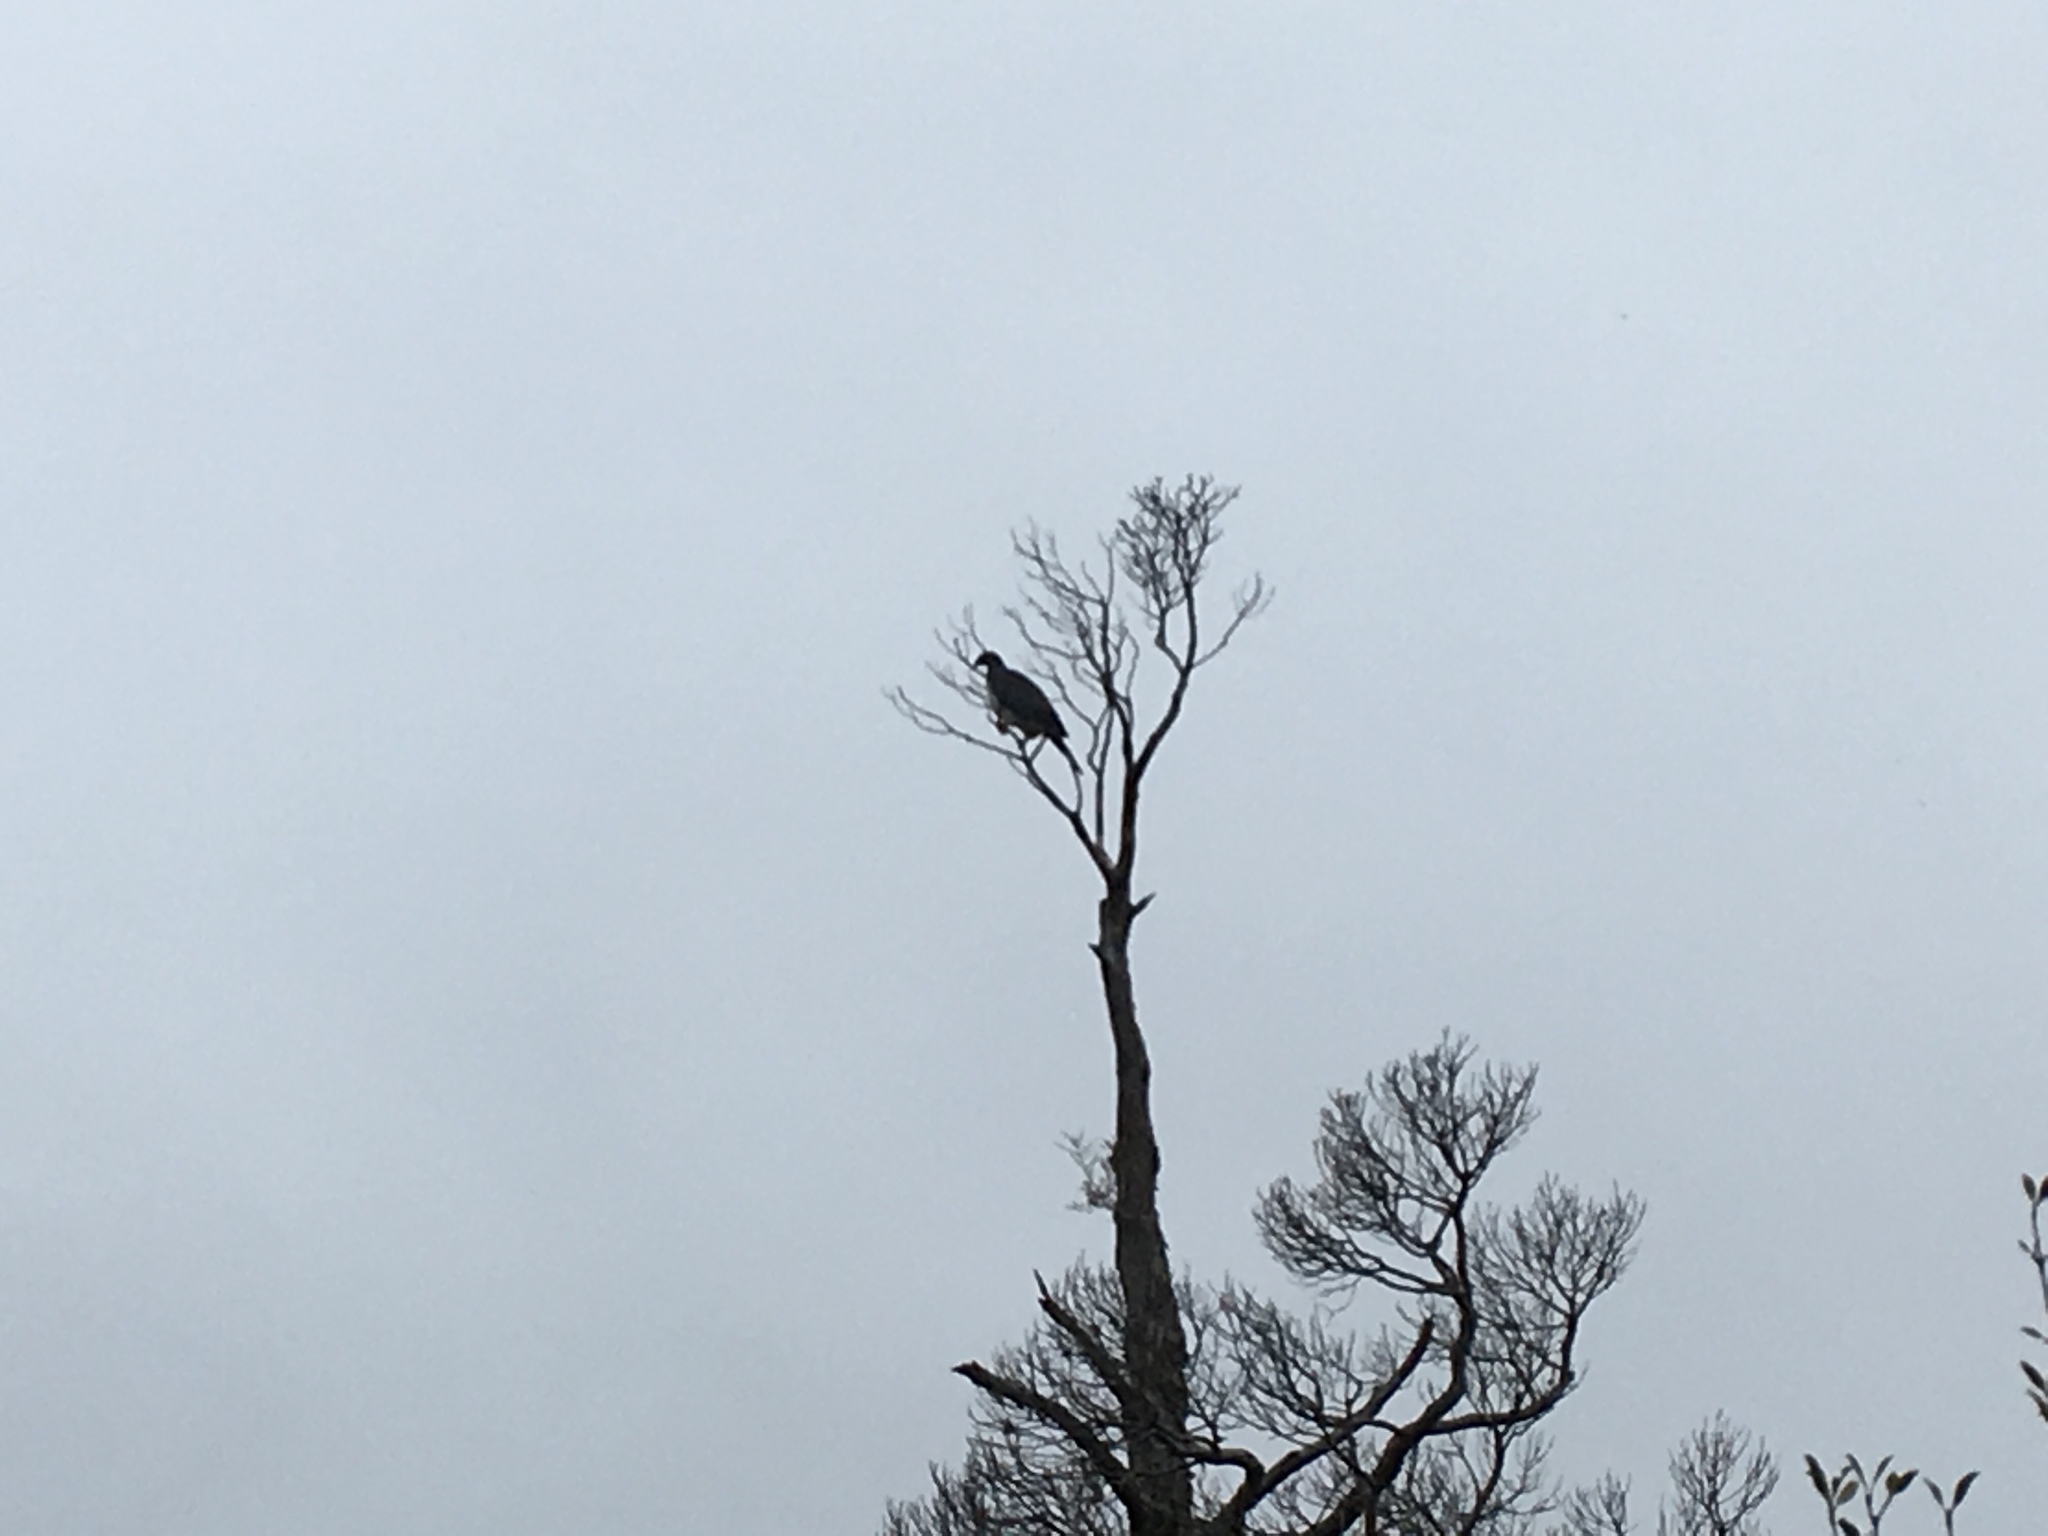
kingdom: Animalia
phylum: Chordata
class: Aves
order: Columbiformes
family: Columbidae
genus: Hemiphaga
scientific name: Hemiphaga novaeseelandiae
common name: New zealand pigeon
